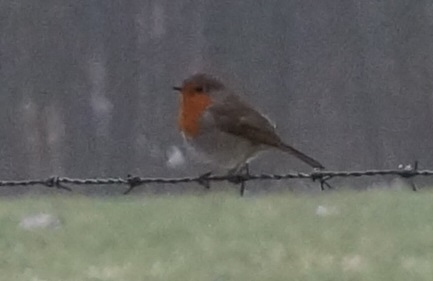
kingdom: Animalia
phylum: Chordata
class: Aves
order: Passeriformes
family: Muscicapidae
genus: Erithacus
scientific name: Erithacus rubecula
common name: European robin
